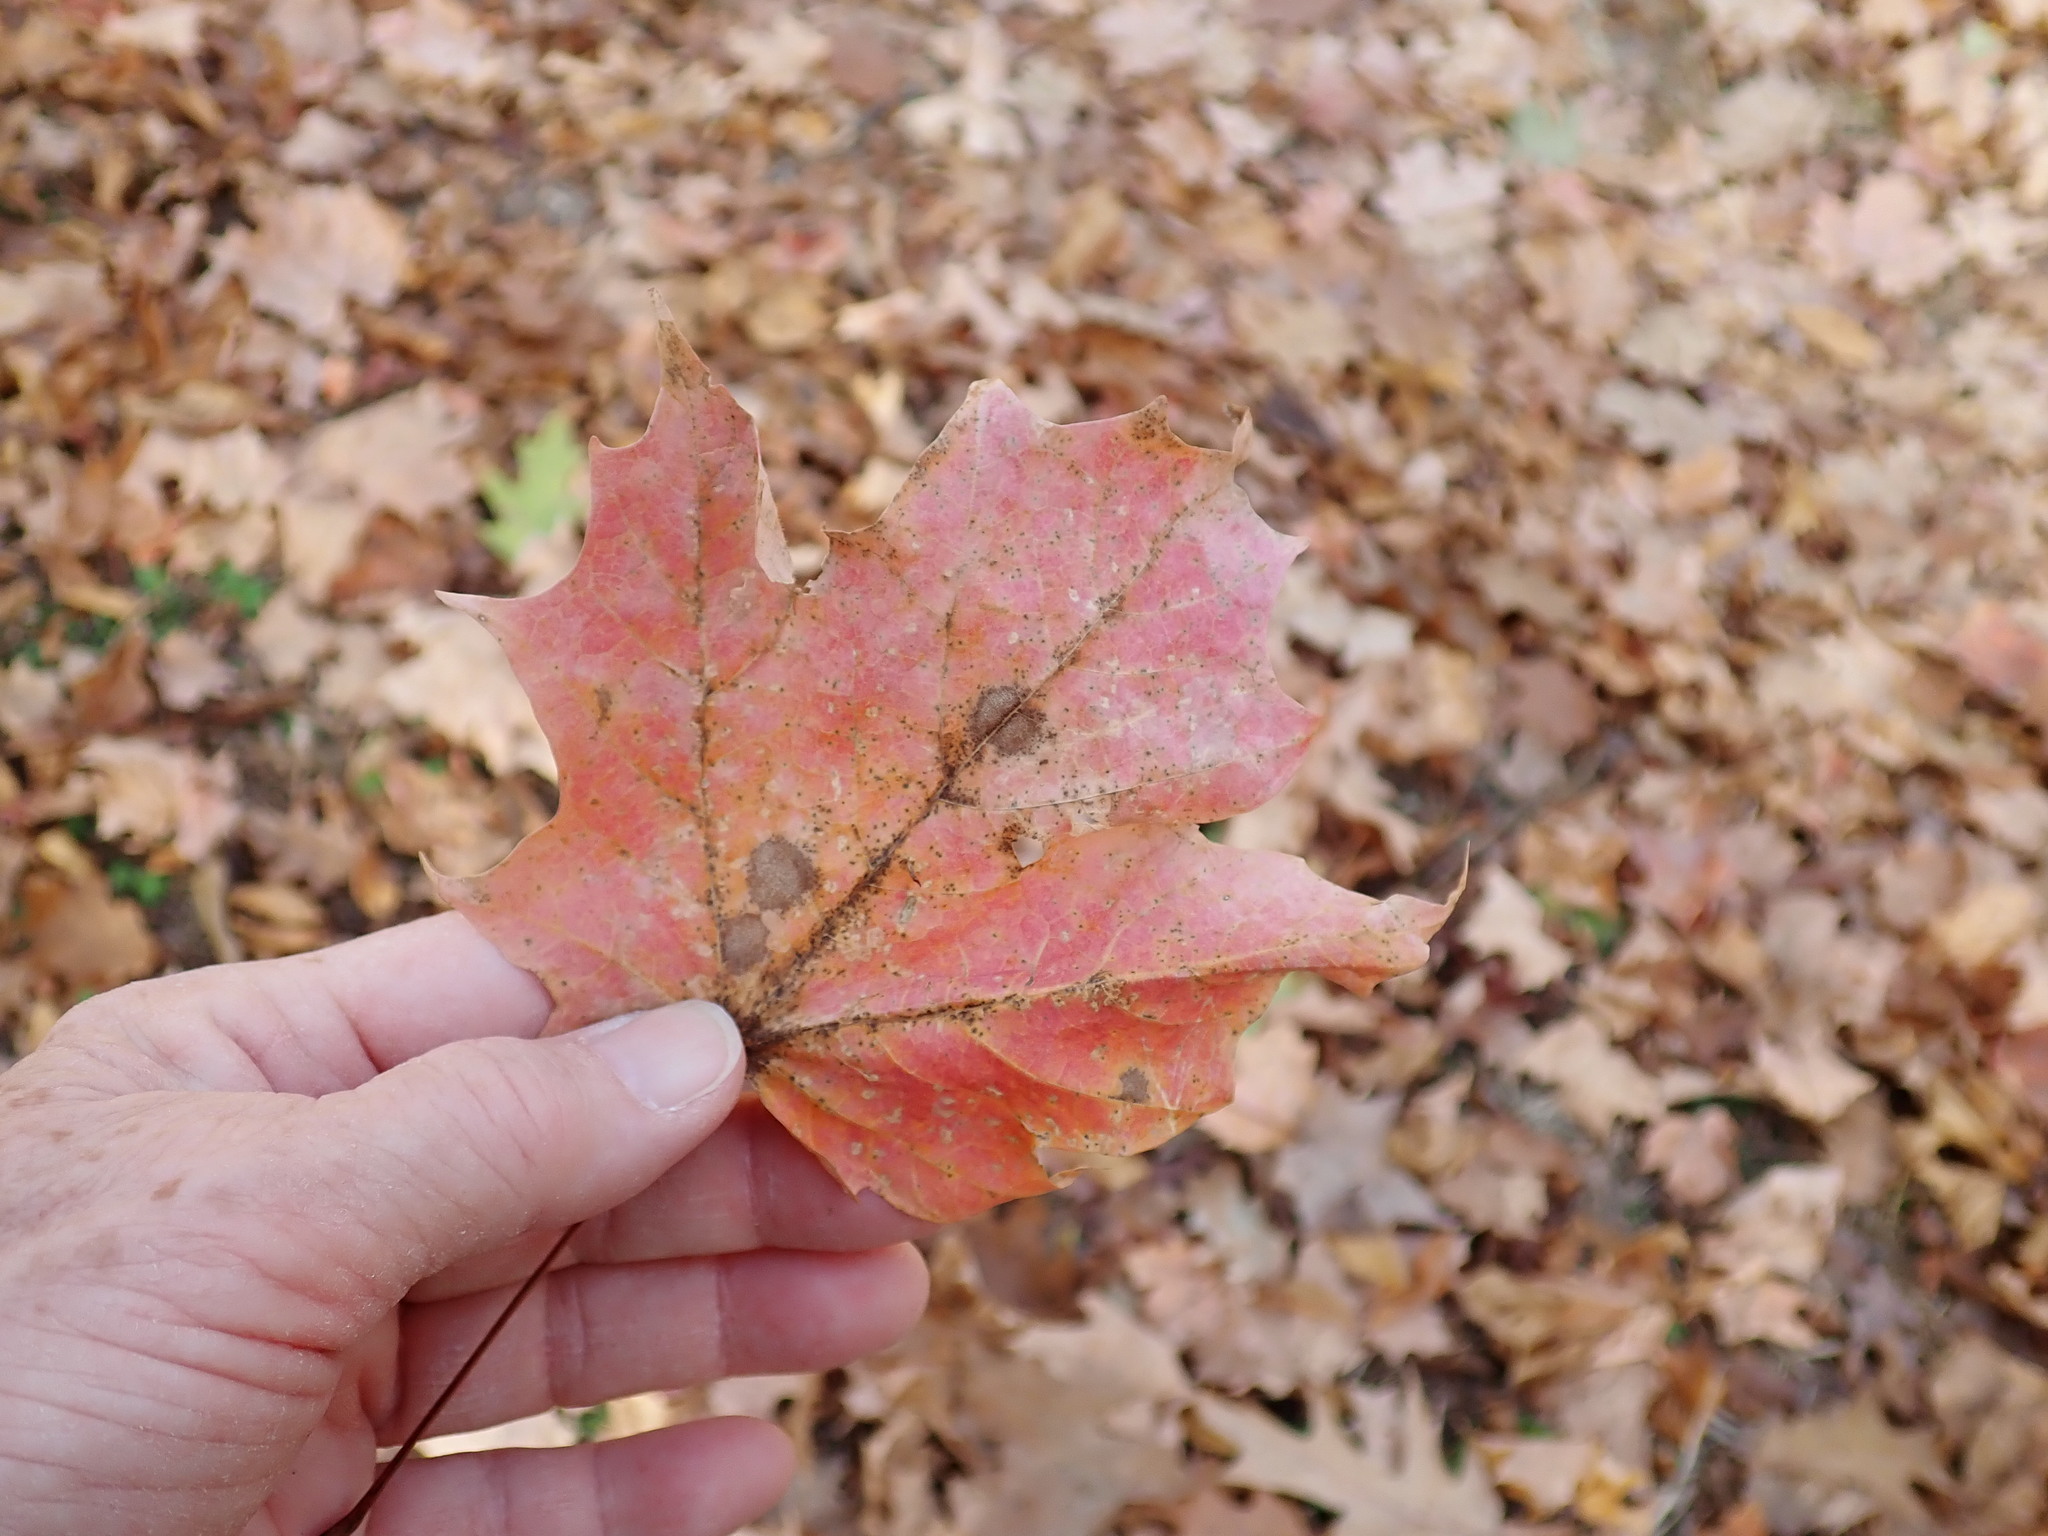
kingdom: Plantae
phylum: Tracheophyta
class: Magnoliopsida
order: Sapindales
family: Sapindaceae
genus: Acer
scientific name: Acer saccharum
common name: Sugar maple
